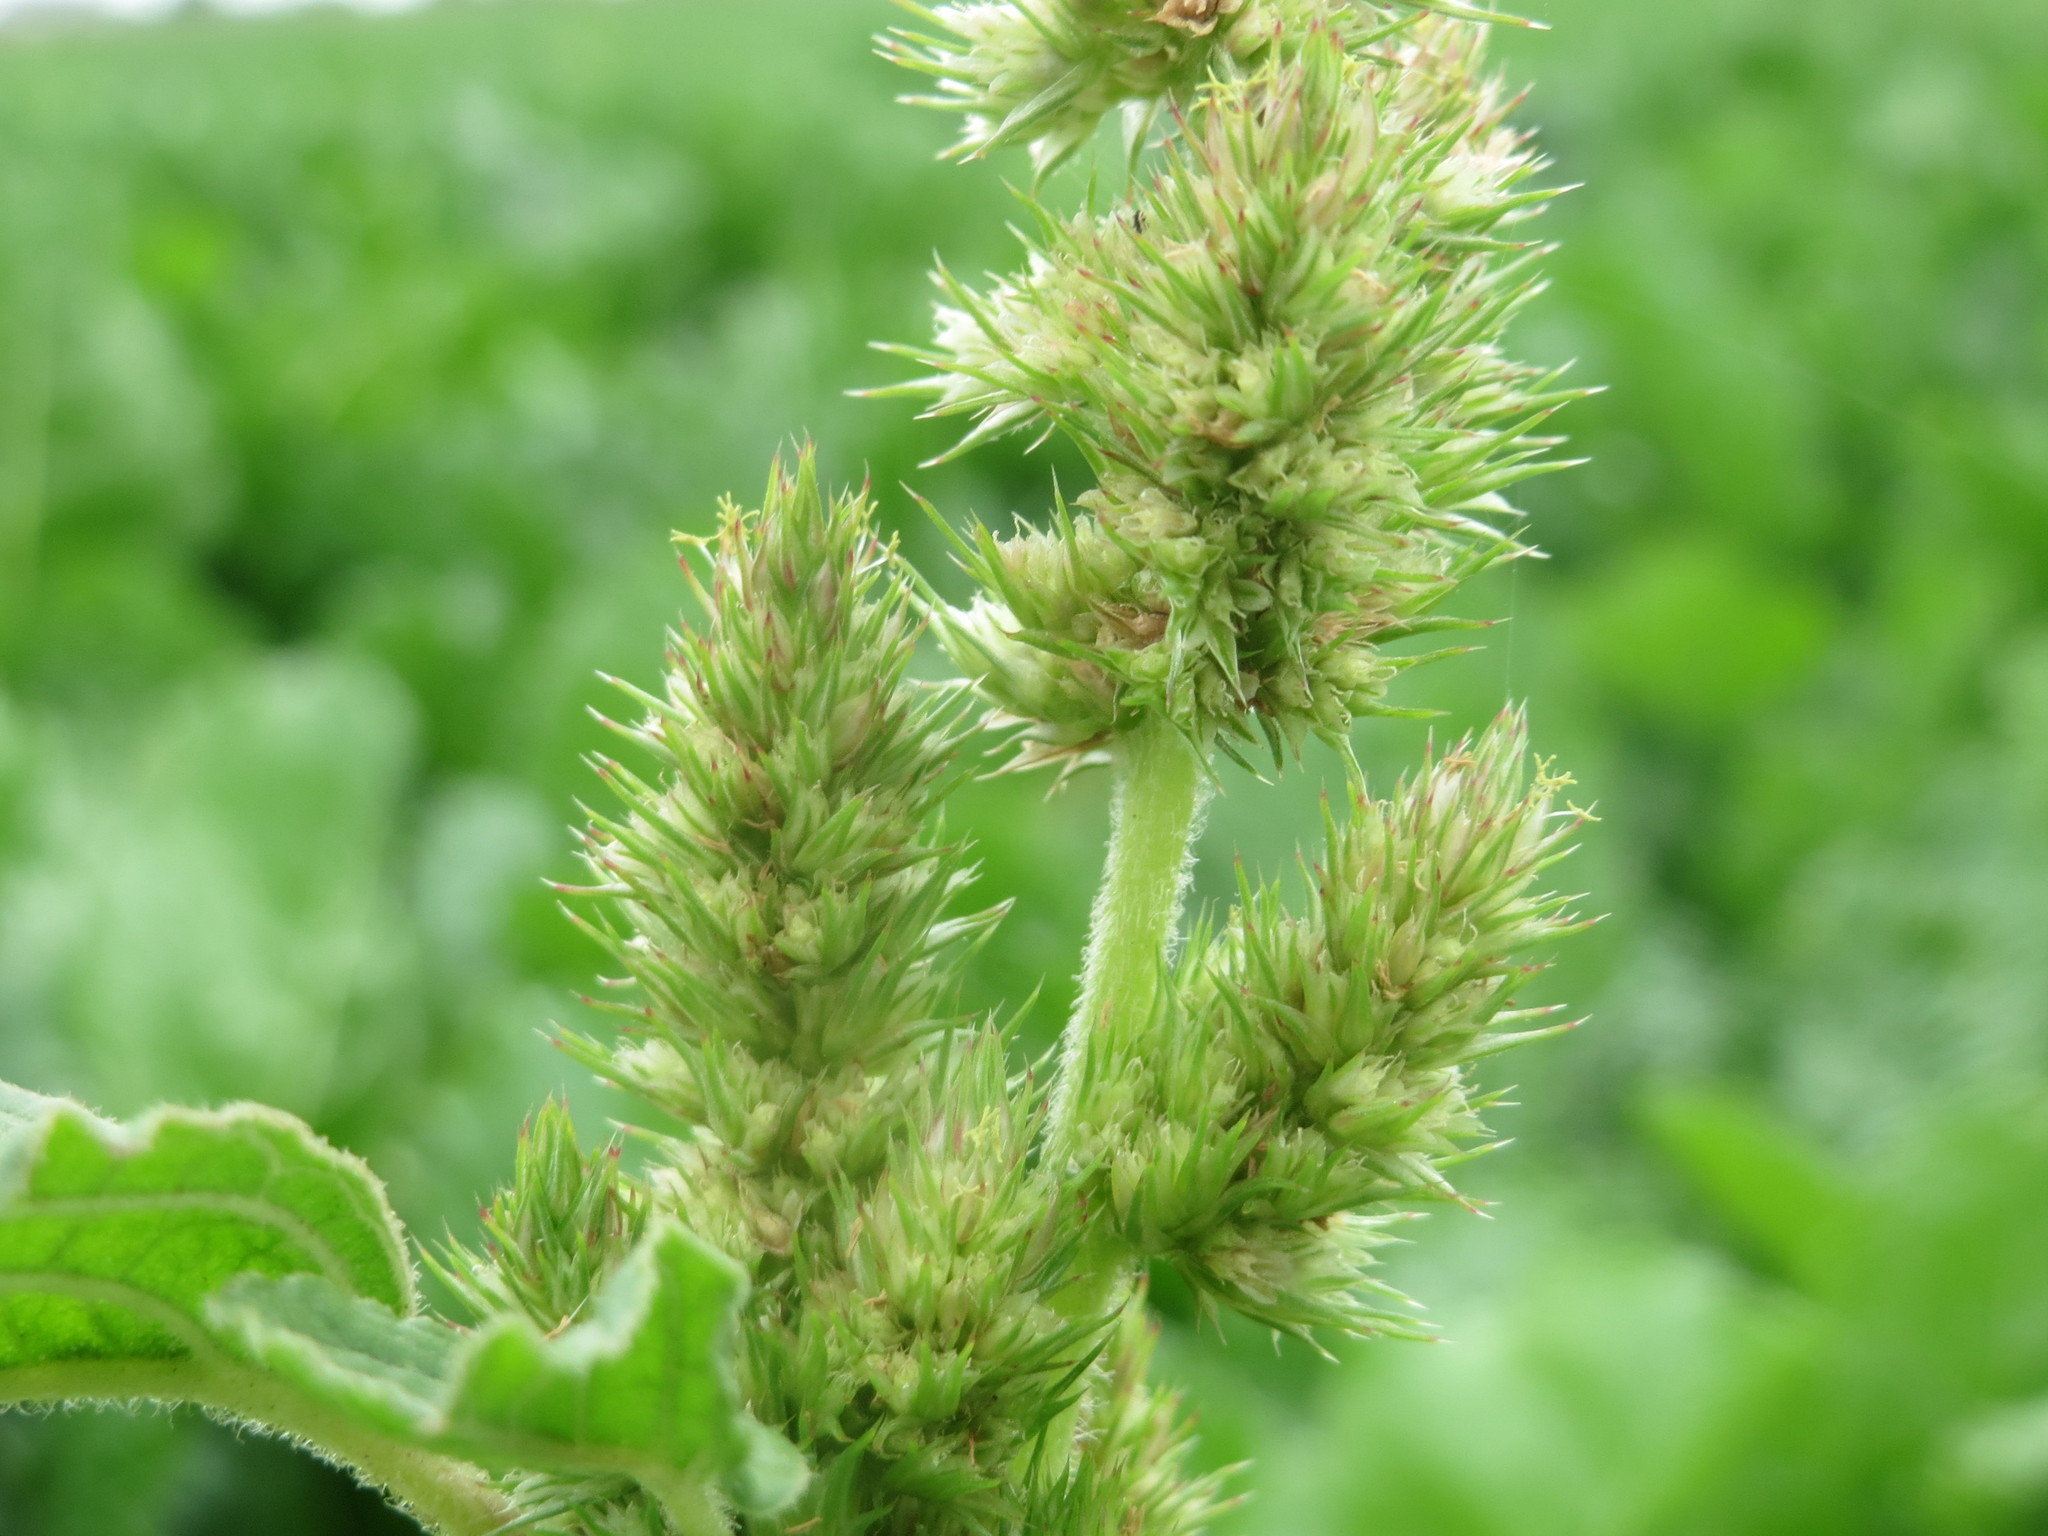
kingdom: Plantae
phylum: Tracheophyta
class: Magnoliopsida
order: Caryophyllales
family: Amaranthaceae
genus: Amaranthus
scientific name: Amaranthus retroflexus
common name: Redroot amaranth
